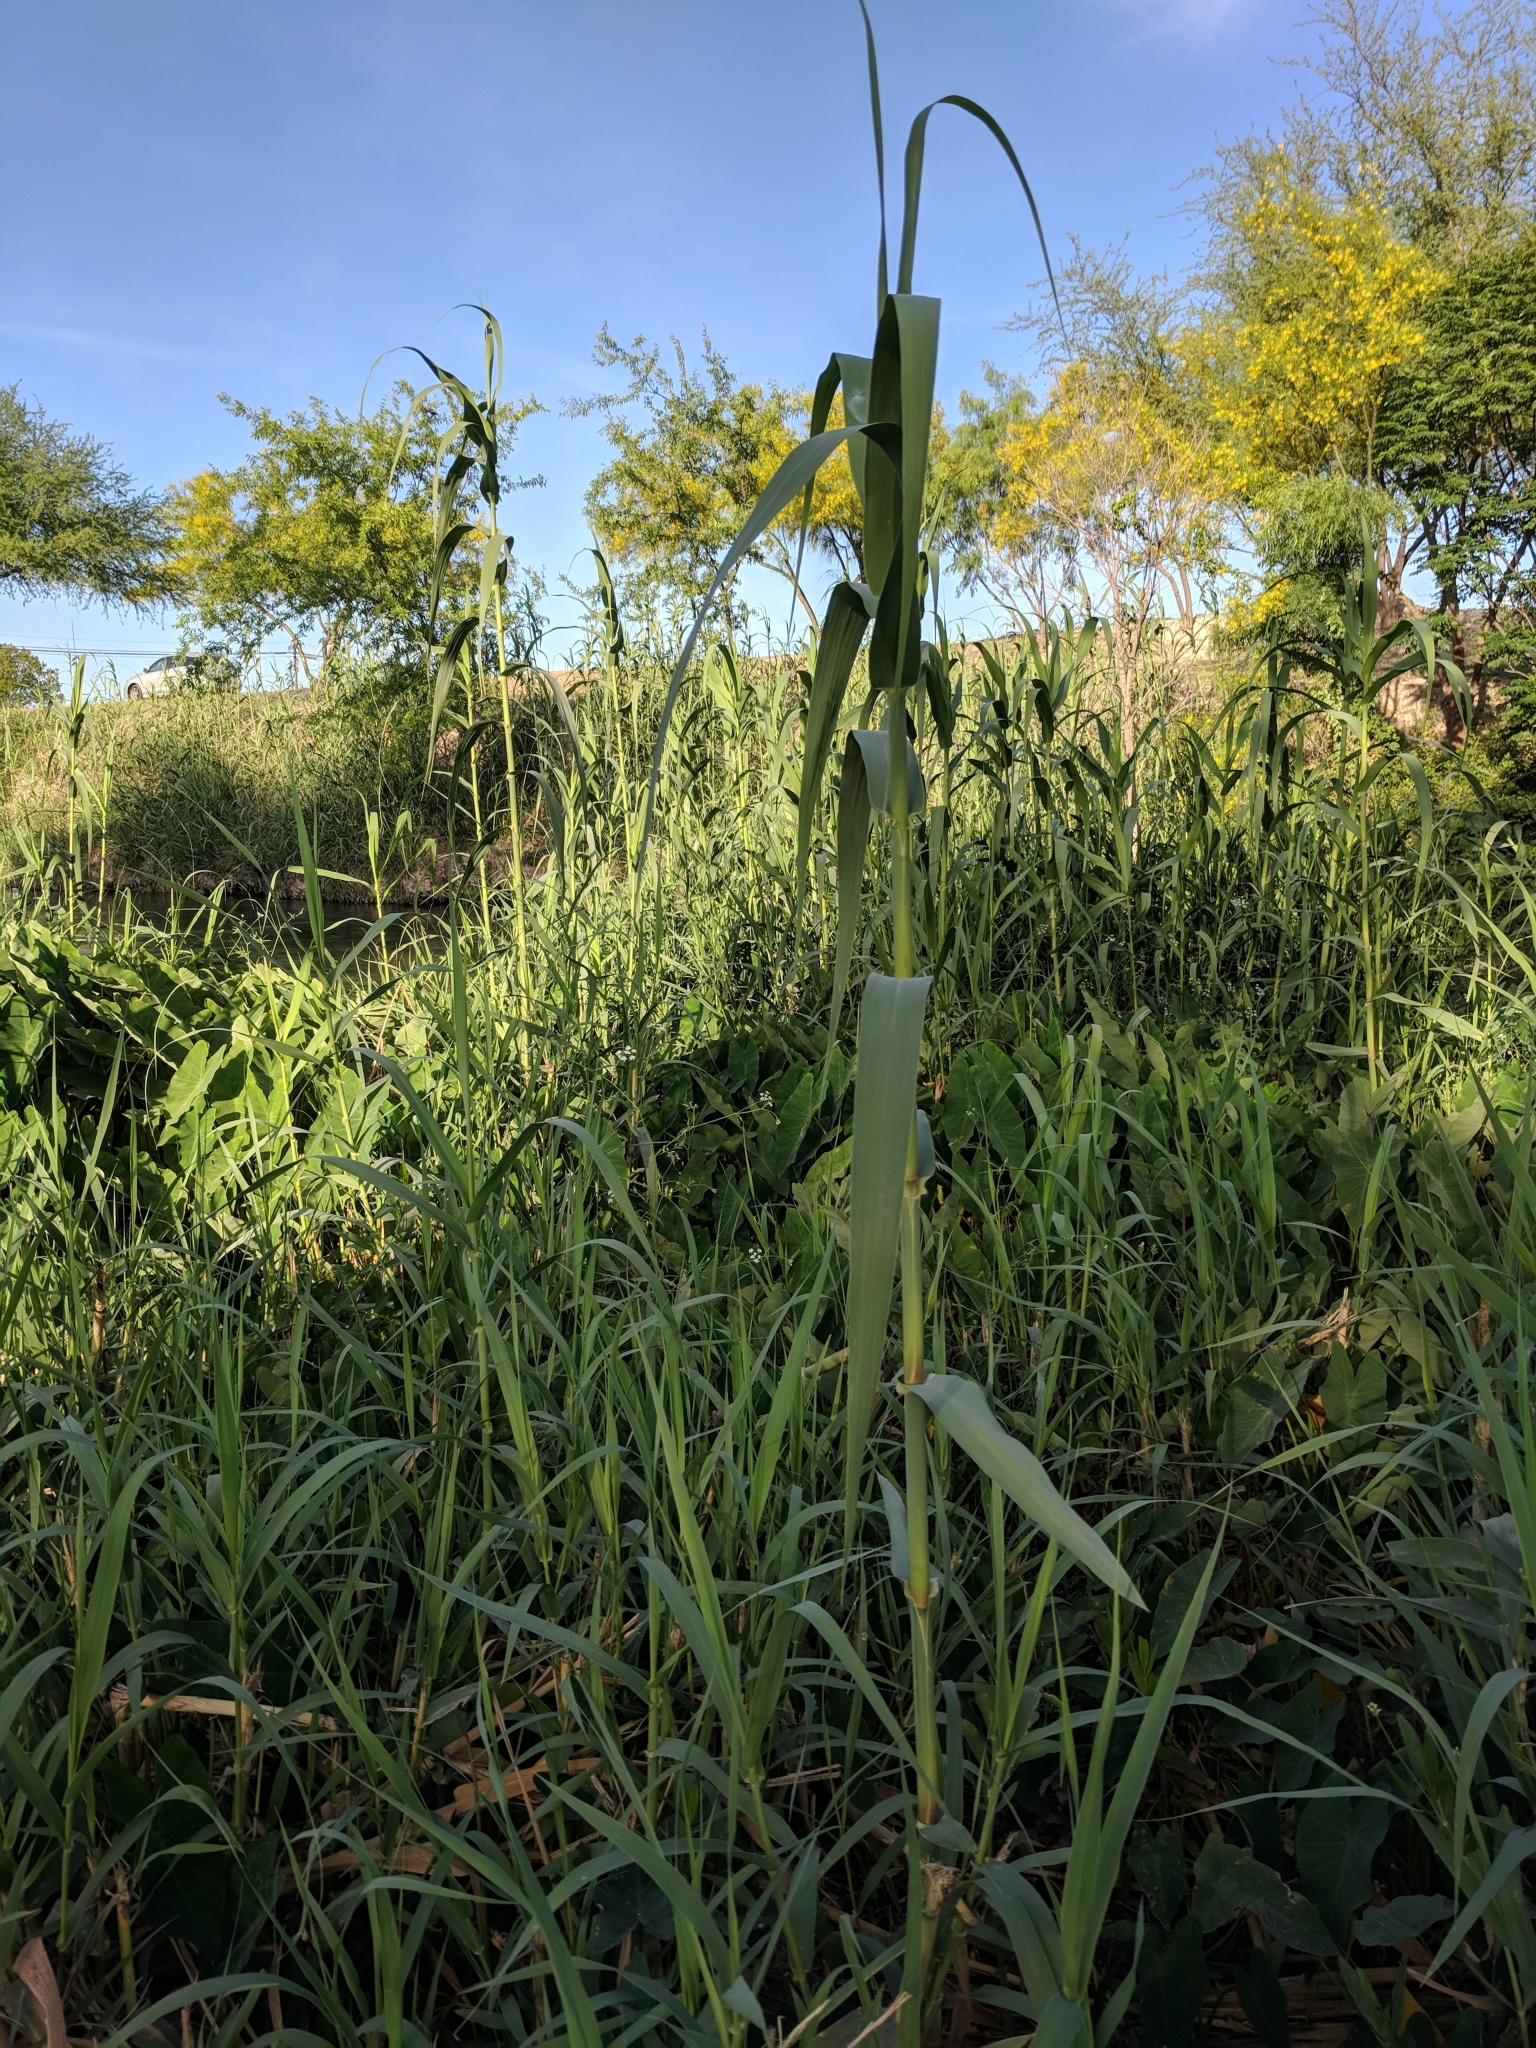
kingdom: Plantae
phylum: Tracheophyta
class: Liliopsida
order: Poales
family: Poaceae
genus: Arundo
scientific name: Arundo donax
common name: Giant reed
